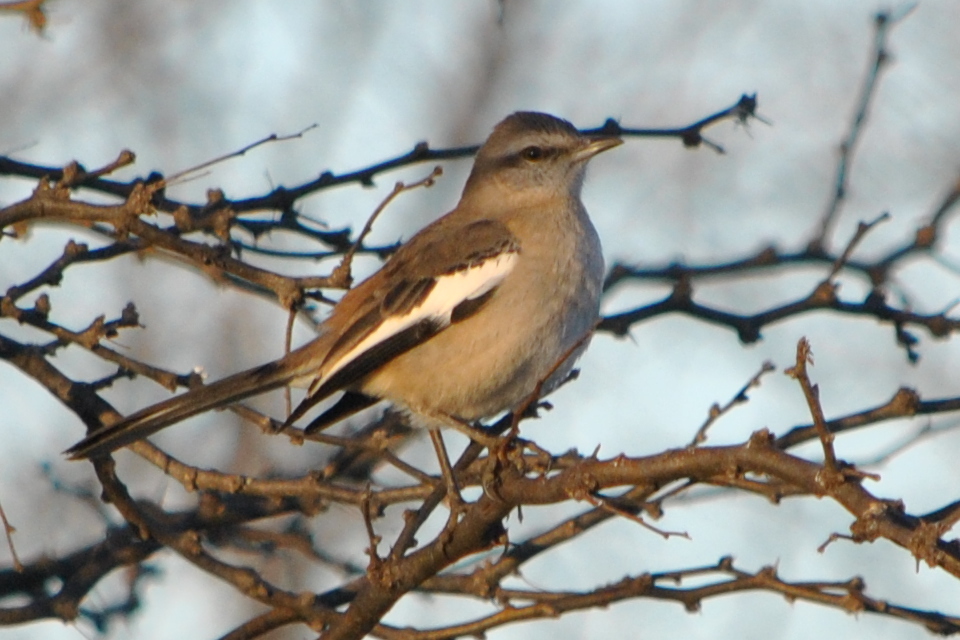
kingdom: Animalia
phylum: Chordata
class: Aves
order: Passeriformes
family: Mimidae
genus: Mimus
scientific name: Mimus triurus
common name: White-banded mockingbird
